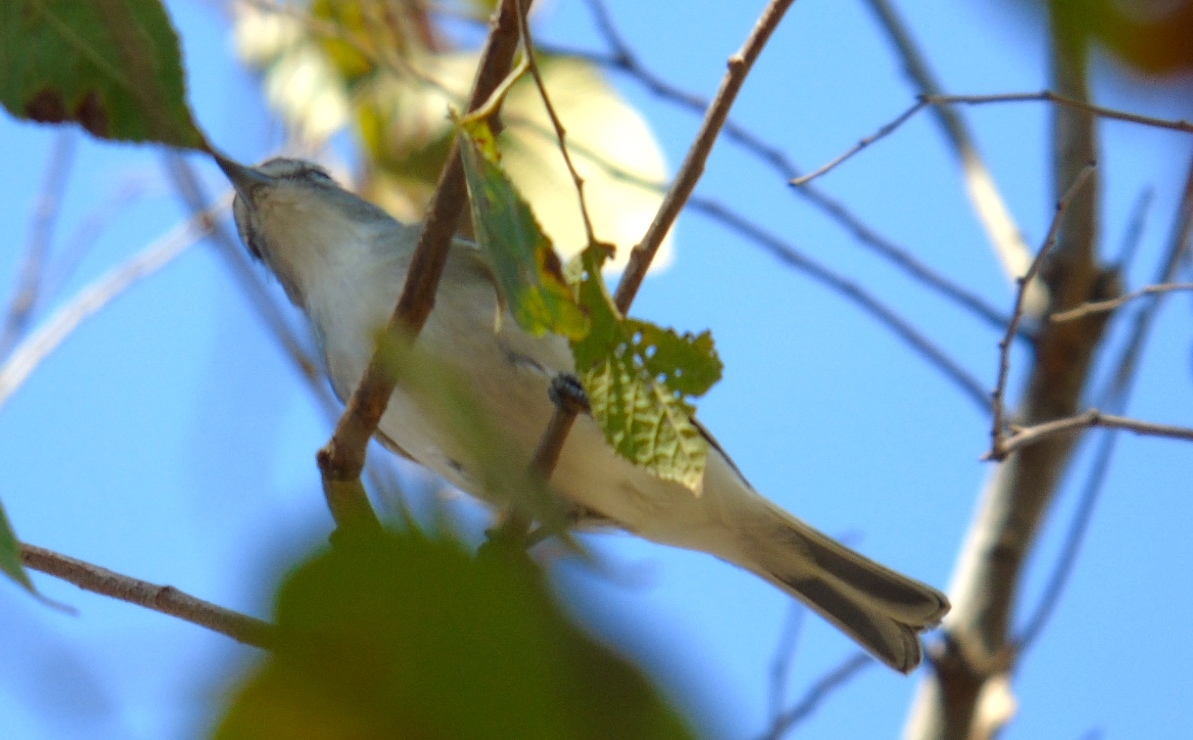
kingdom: Animalia
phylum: Chordata
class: Aves
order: Passeriformes
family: Vireonidae
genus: Vireo
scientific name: Vireo
